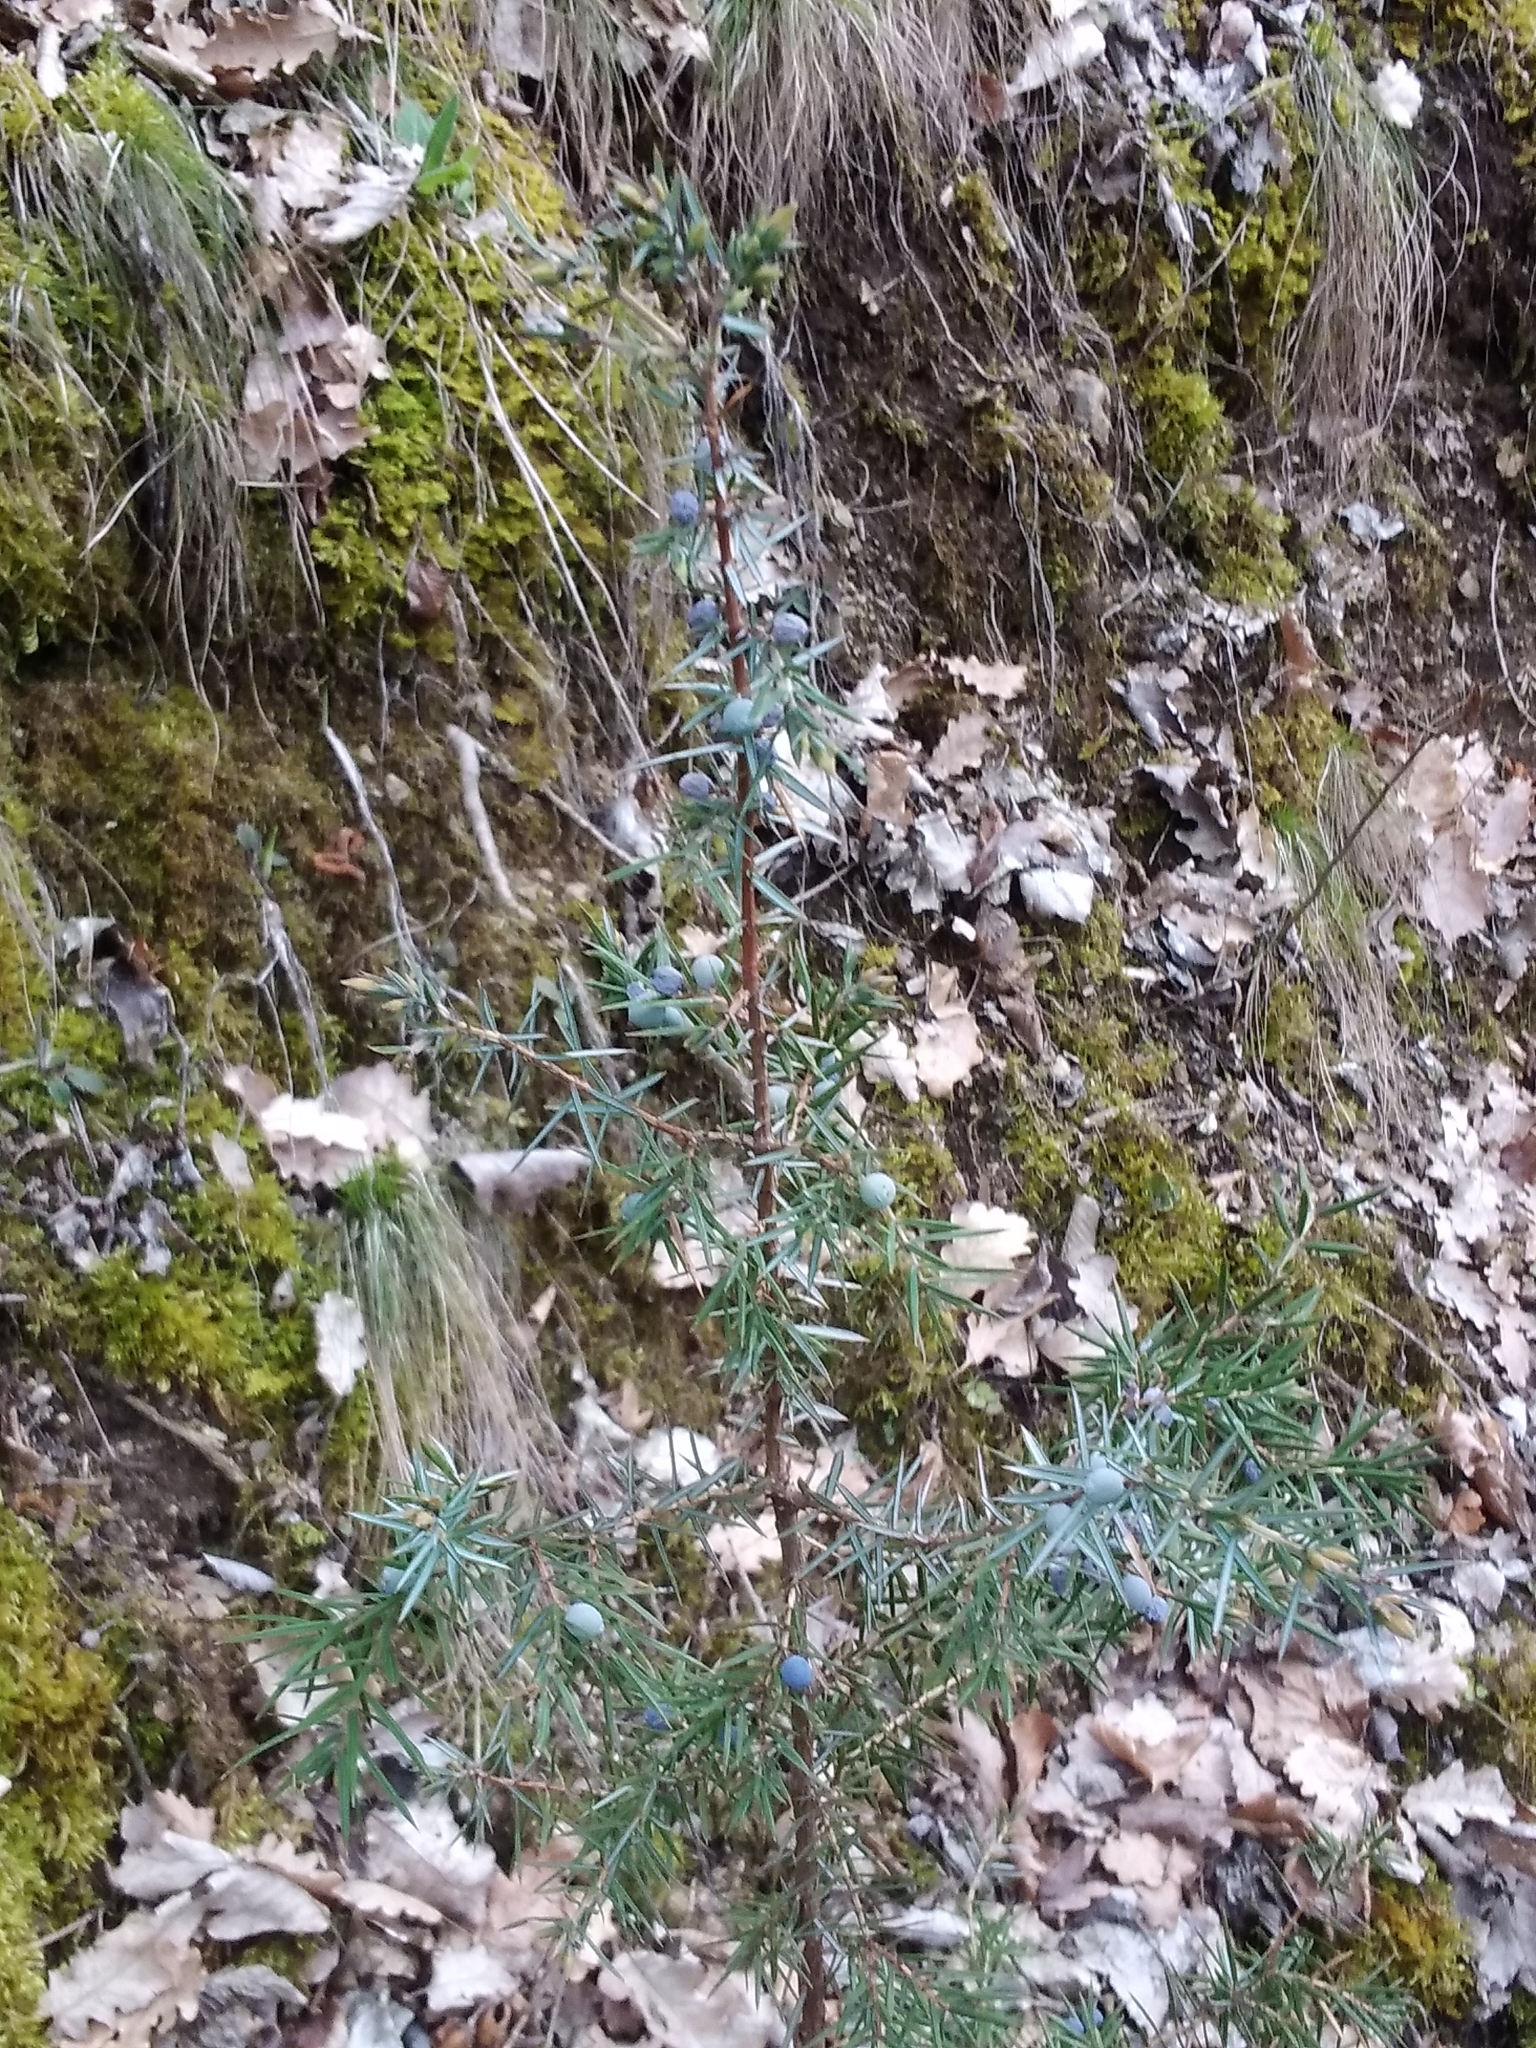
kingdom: Plantae
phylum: Tracheophyta
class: Pinopsida
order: Pinales
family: Cupressaceae
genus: Juniperus
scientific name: Juniperus communis
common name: Common juniper
